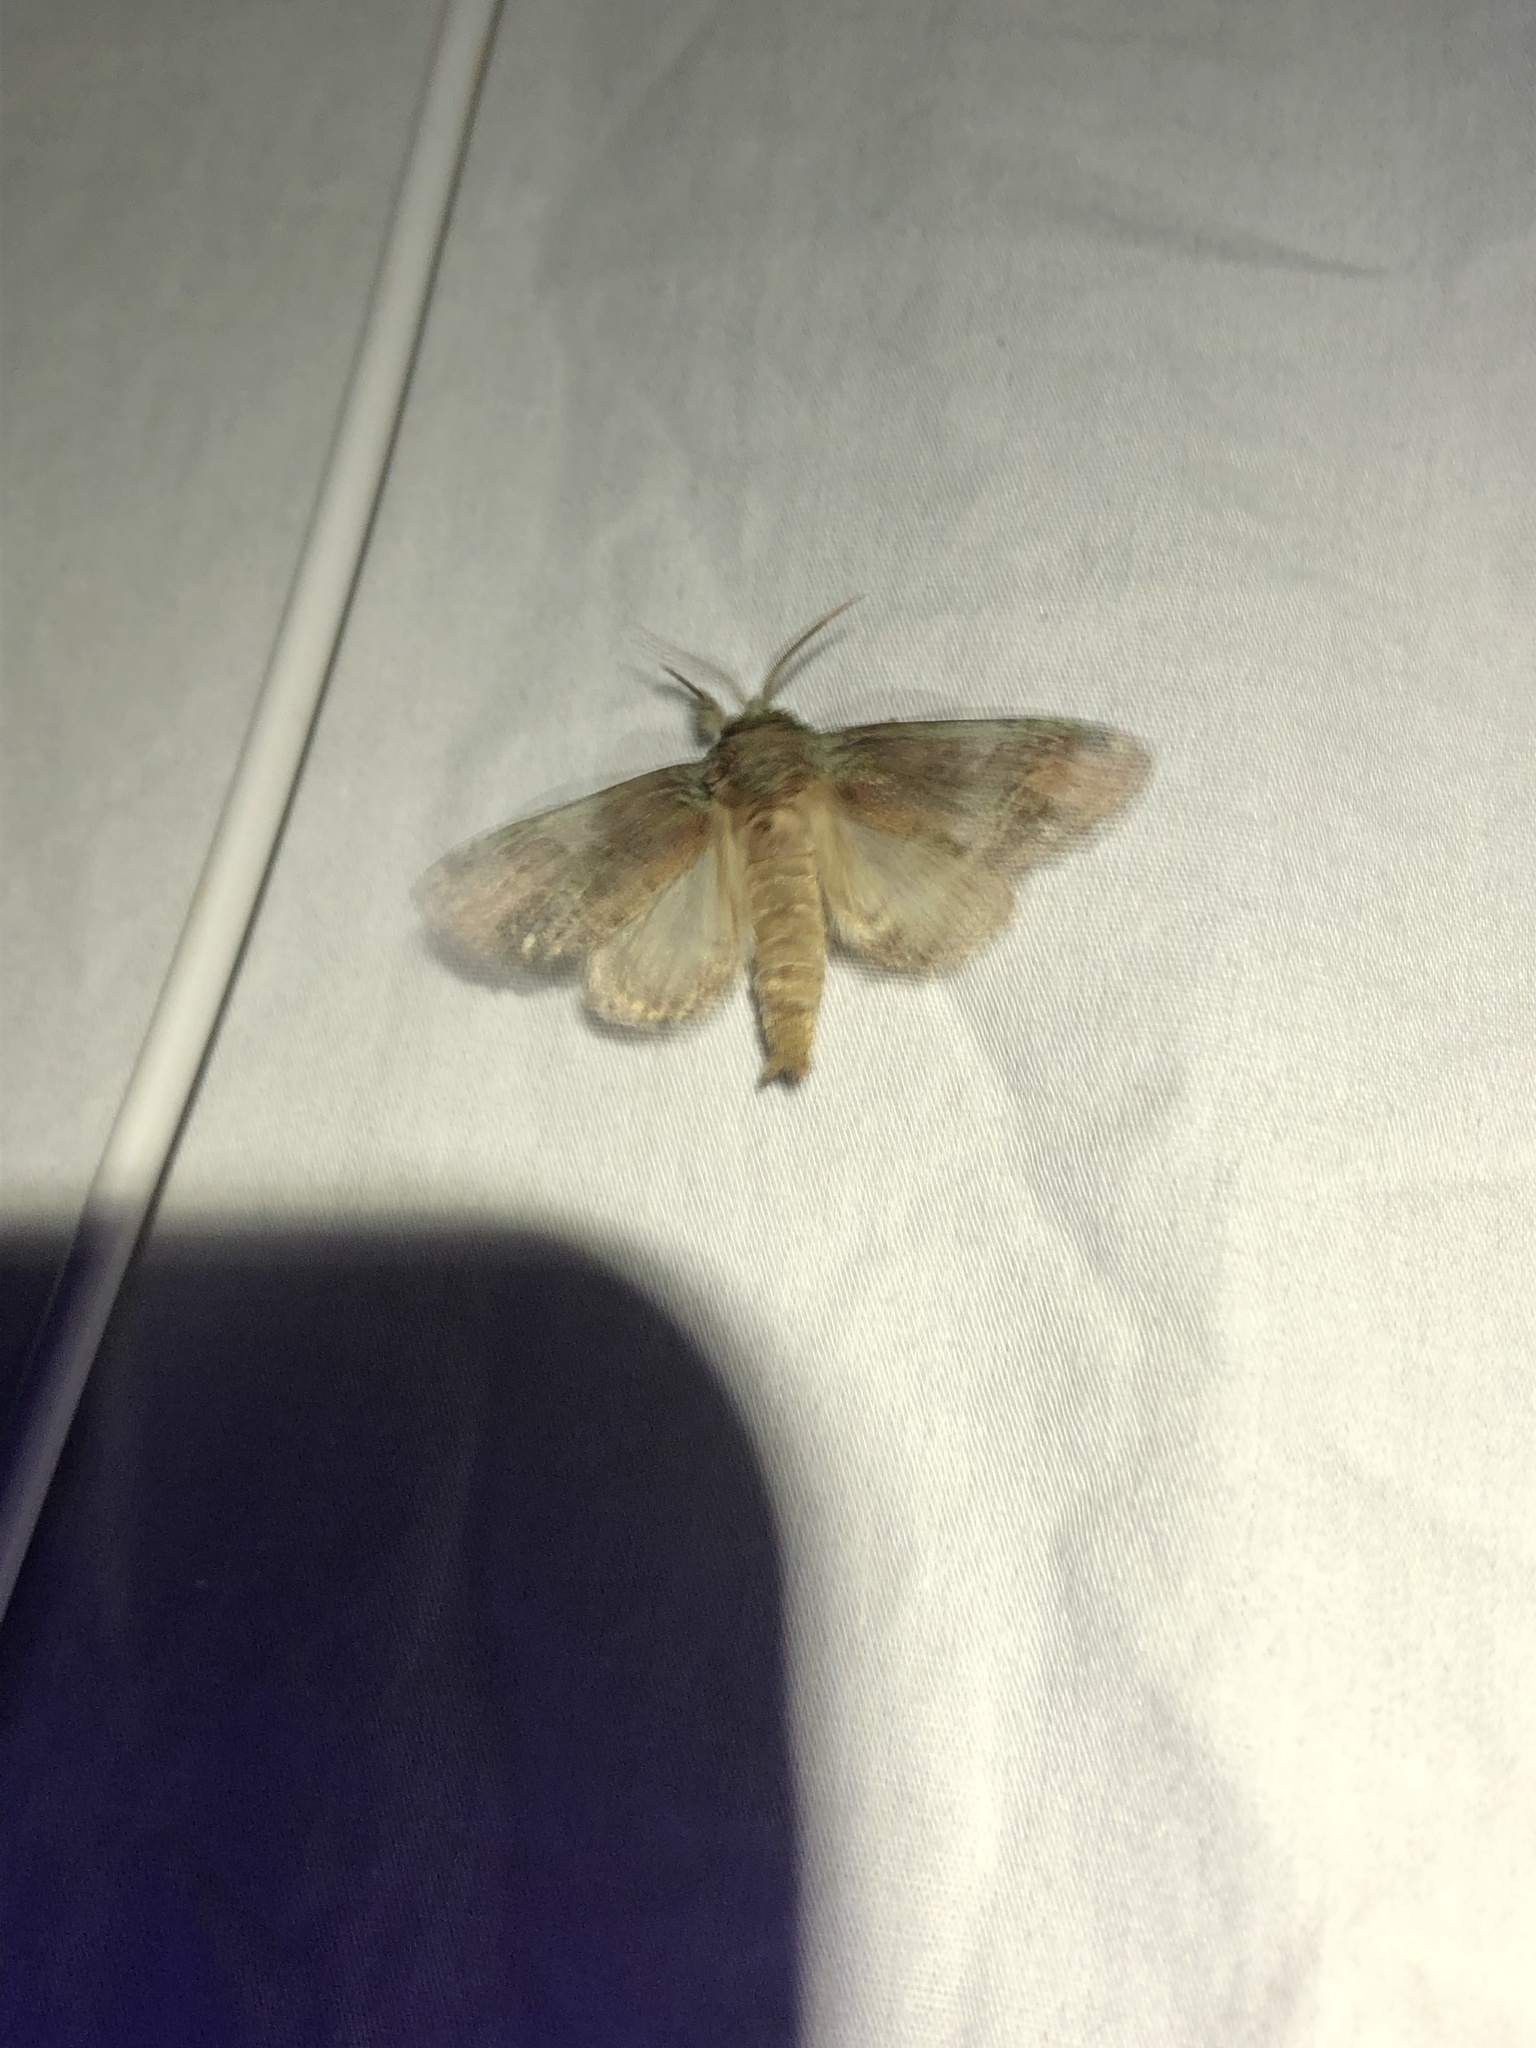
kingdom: Animalia
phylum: Arthropoda
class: Insecta
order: Lepidoptera
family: Notodontidae
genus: Schizura
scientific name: Schizura
